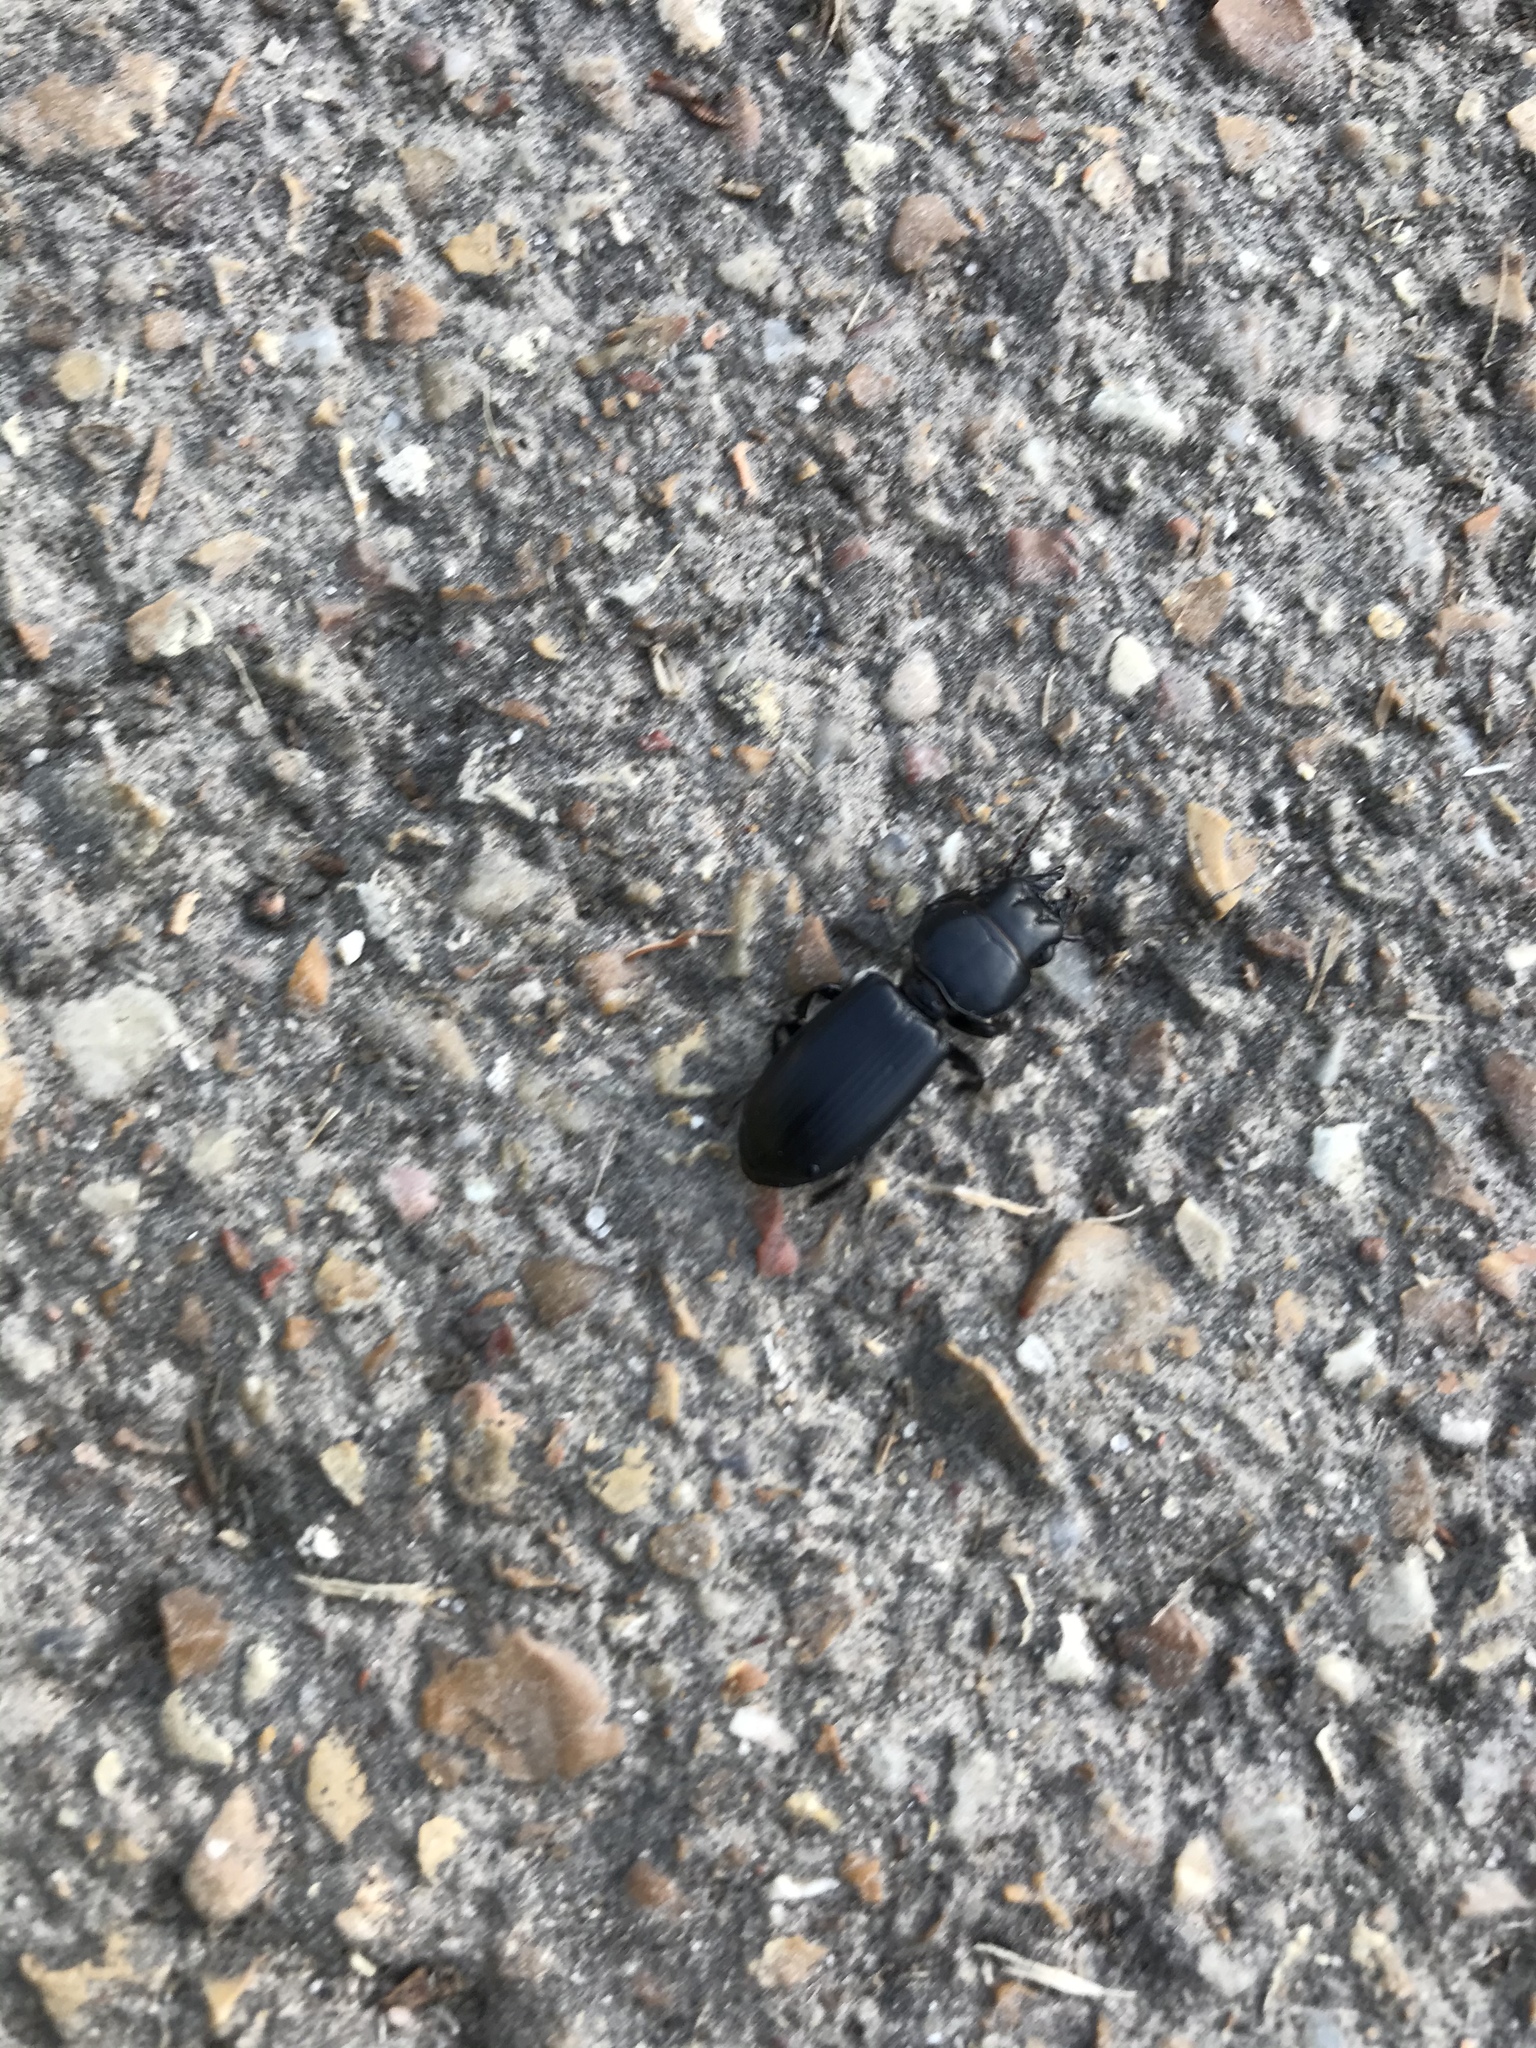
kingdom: Animalia
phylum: Arthropoda
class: Insecta
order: Coleoptera
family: Carabidae
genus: Scarites
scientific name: Scarites subterraneus
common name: Big-headed ground beetle
